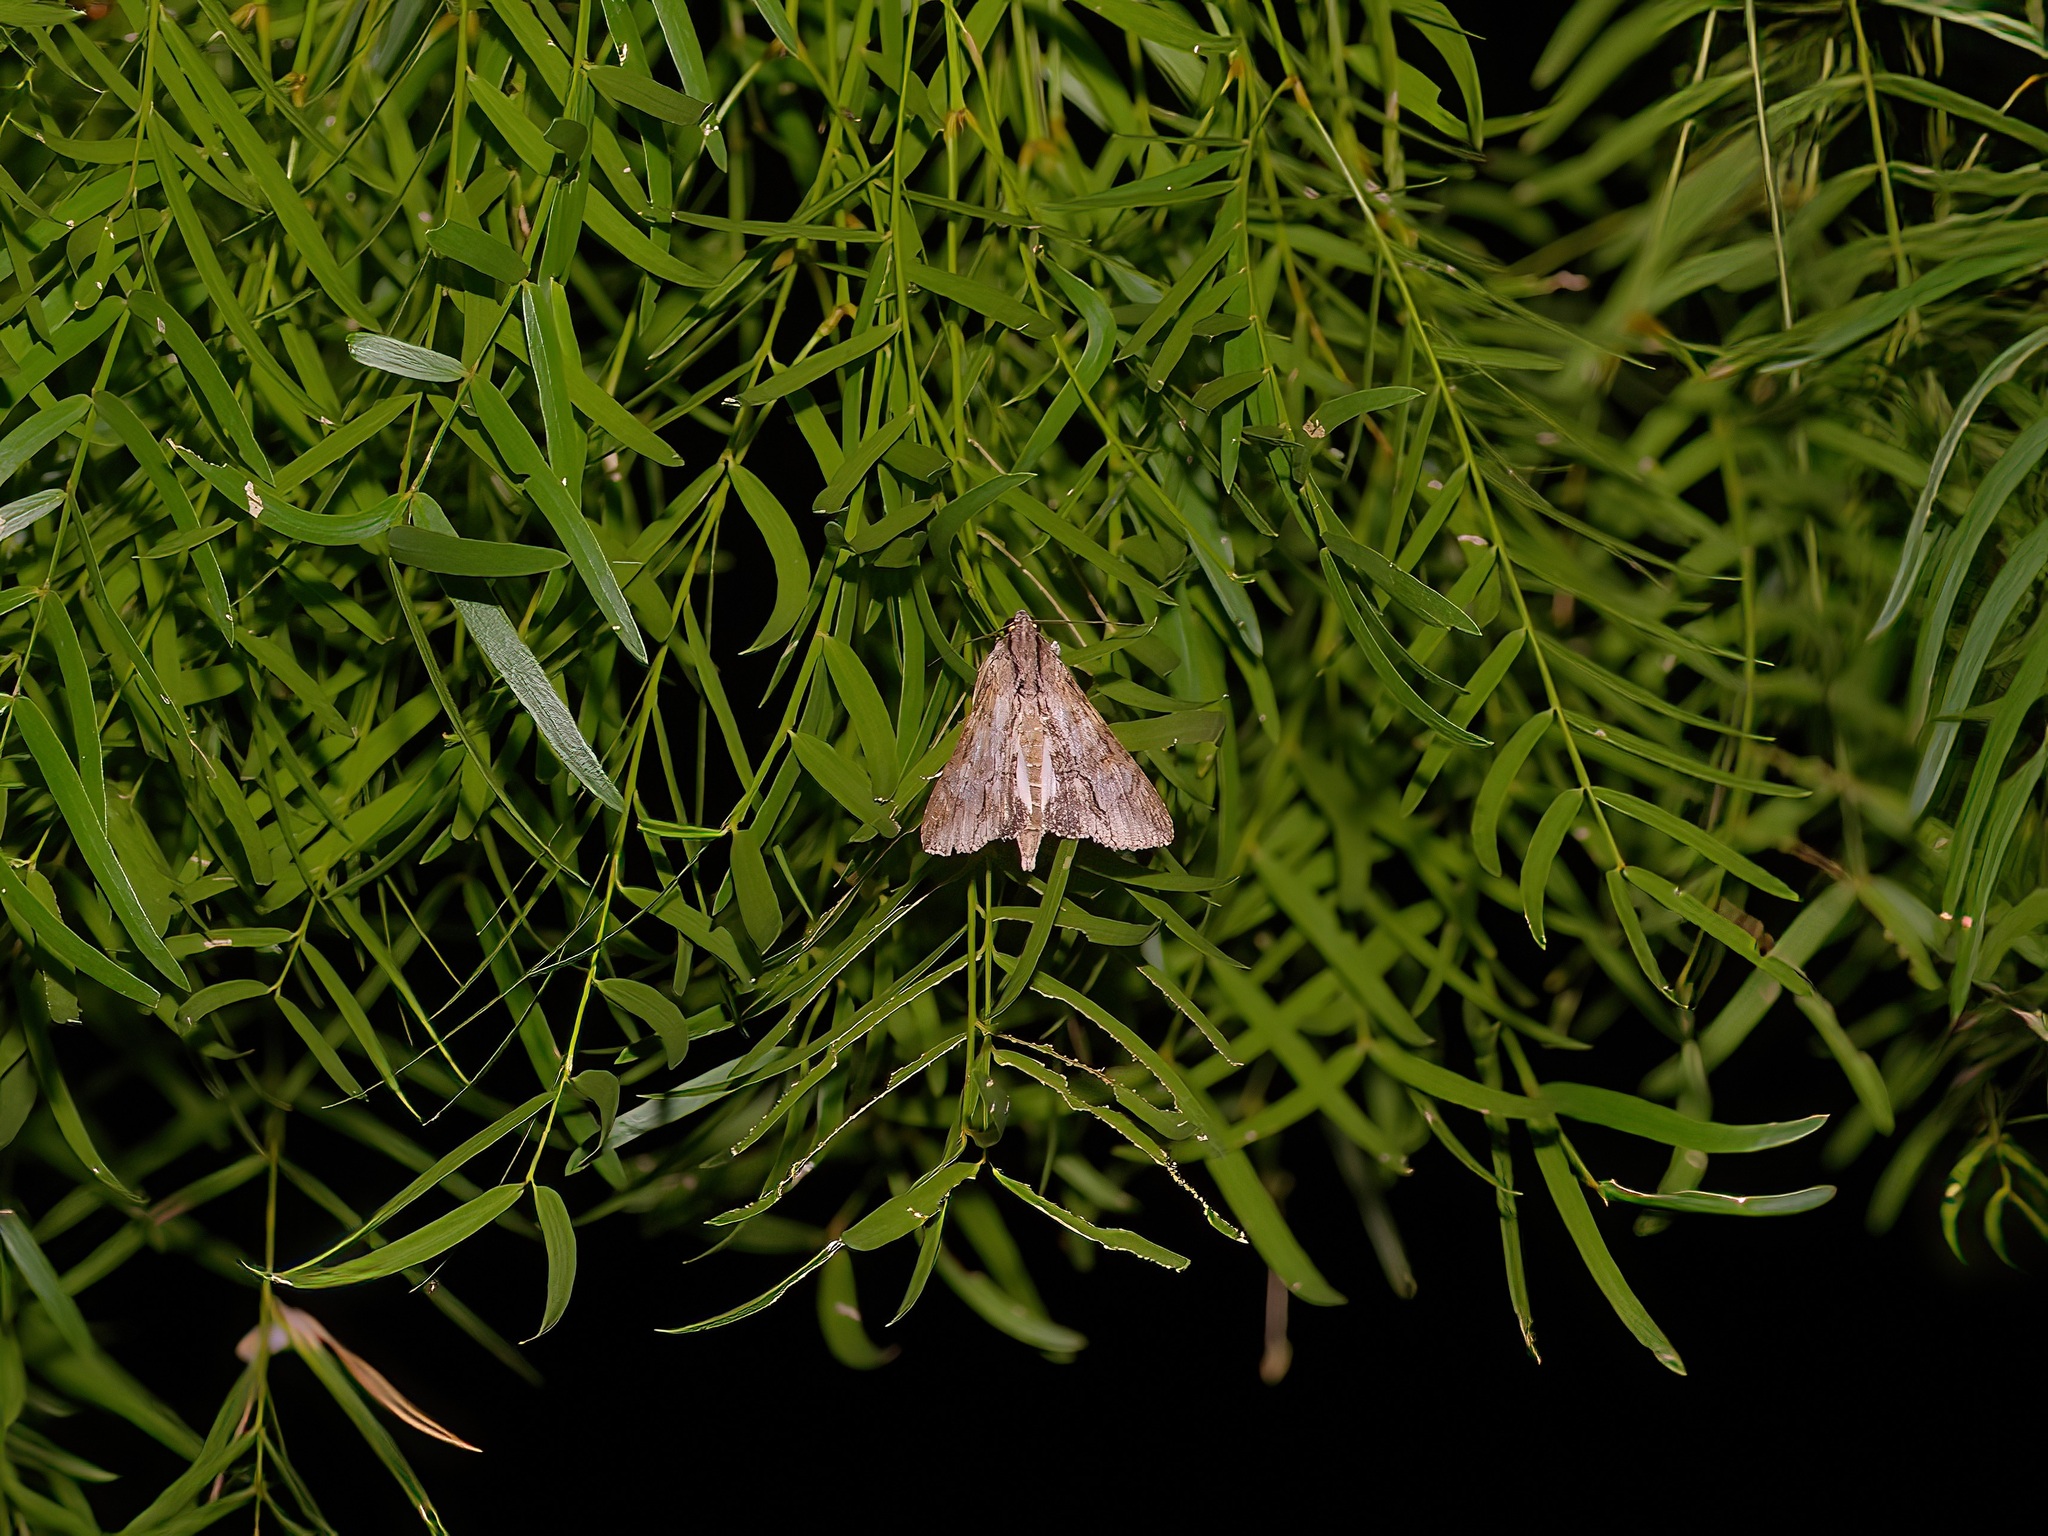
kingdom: Animalia
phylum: Arthropoda
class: Insecta
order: Lepidoptera
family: Erebidae
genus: Melipotis
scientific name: Melipotis acontioides
